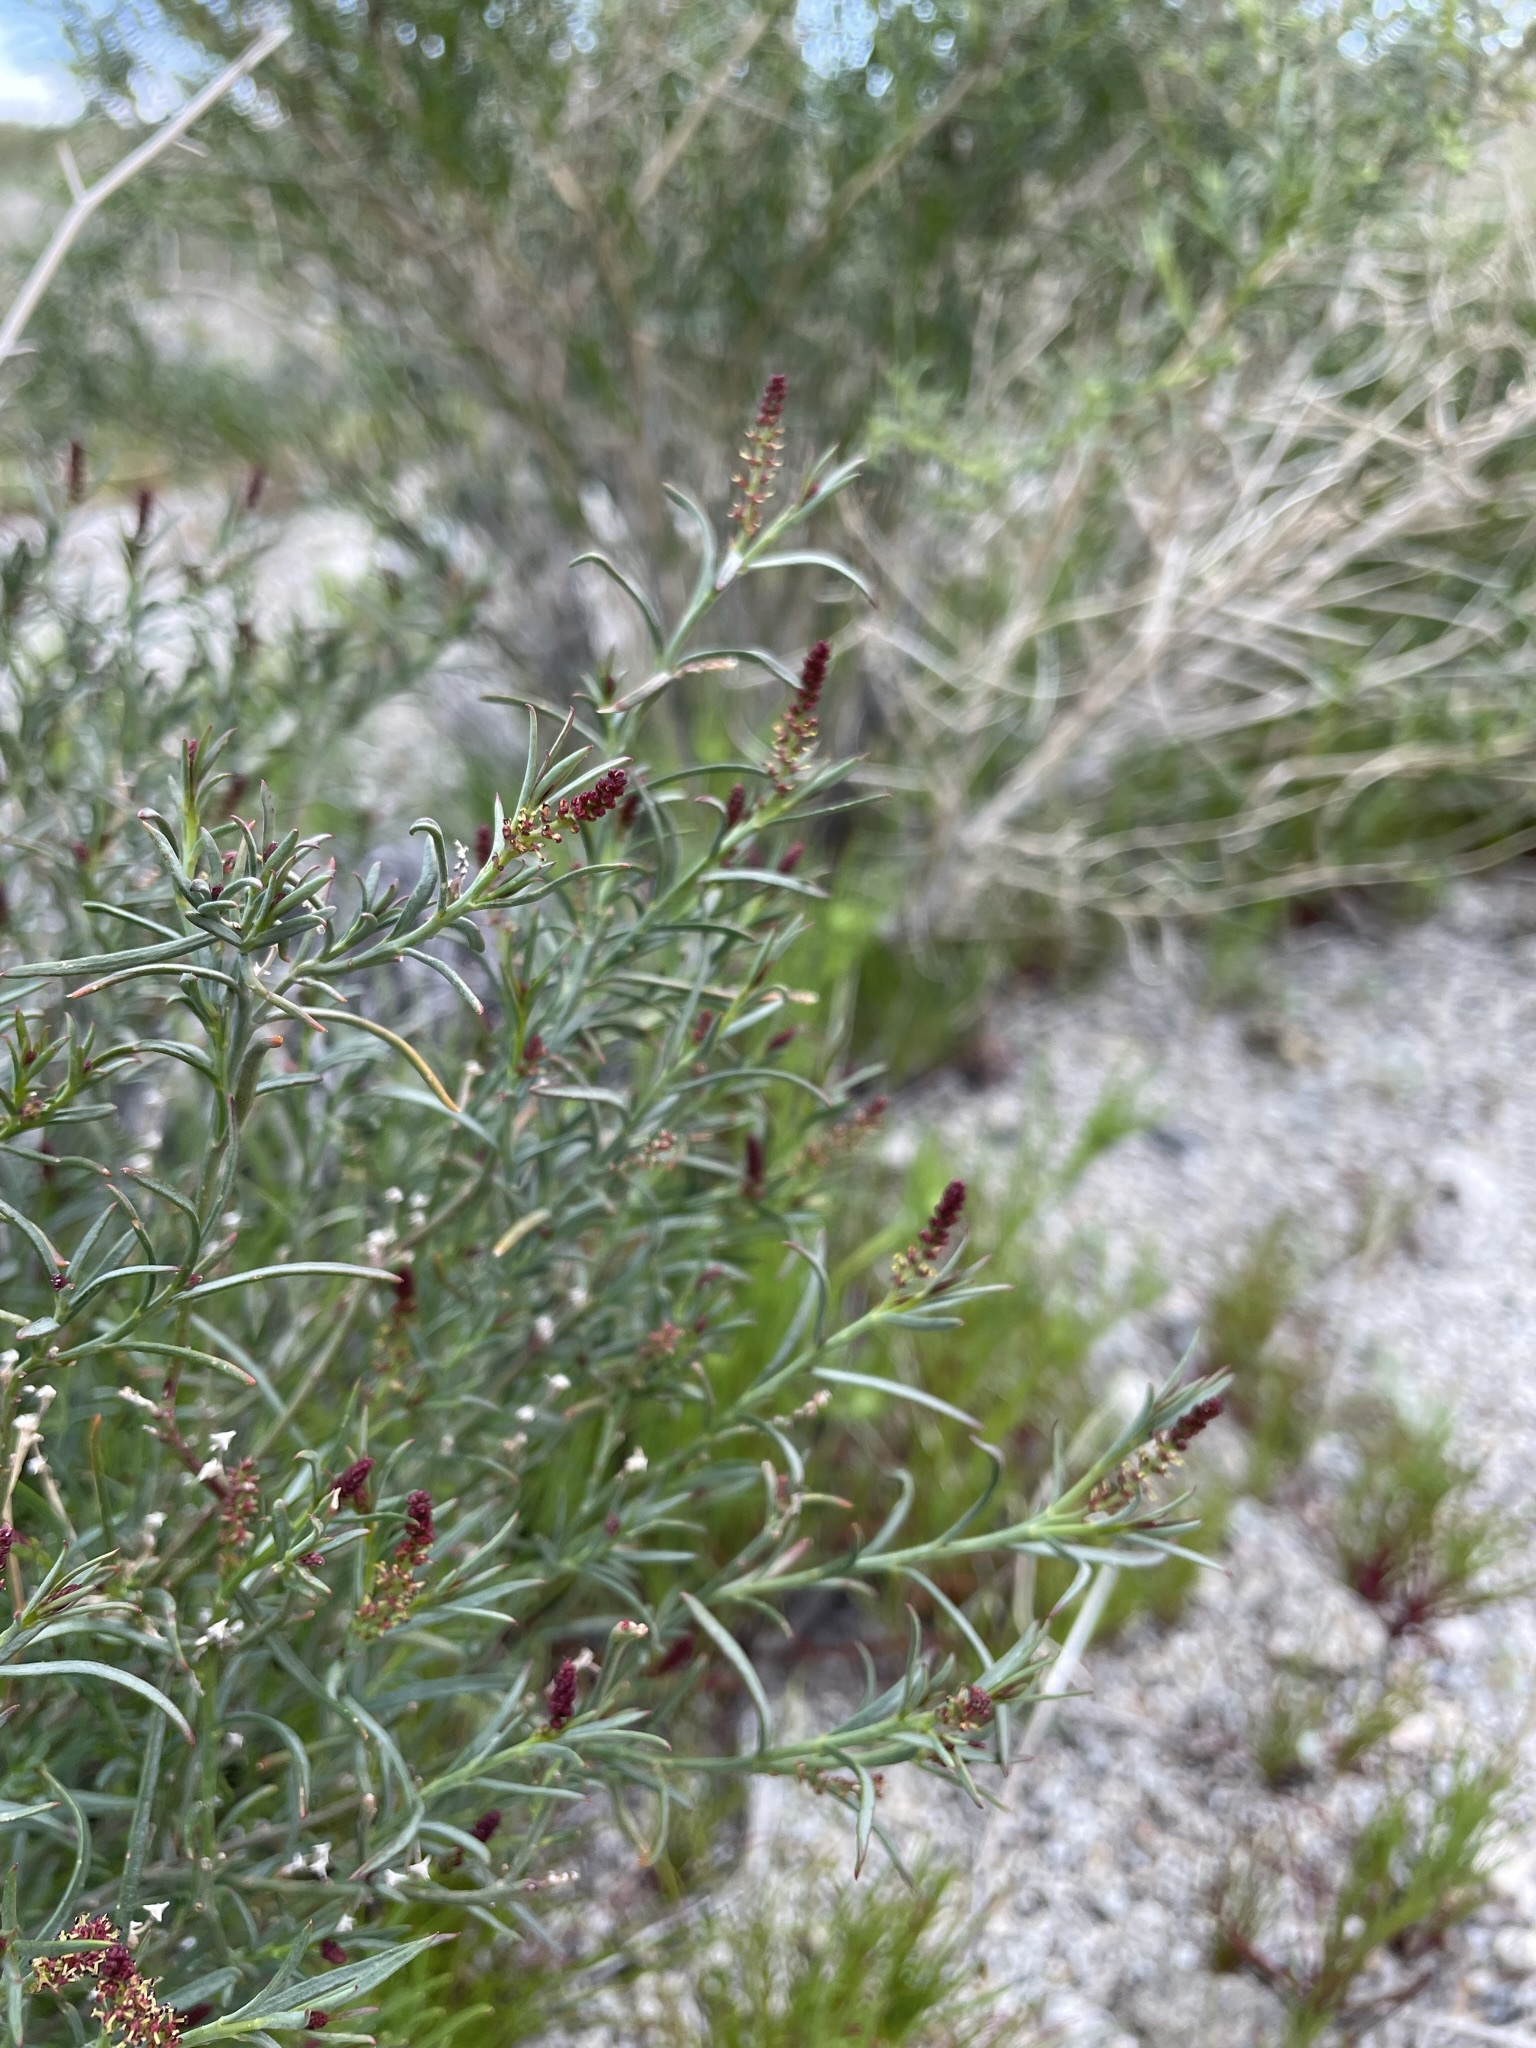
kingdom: Plantae
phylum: Tracheophyta
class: Magnoliopsida
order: Malpighiales
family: Euphorbiaceae
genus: Stillingia
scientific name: Stillingia linearifolia
